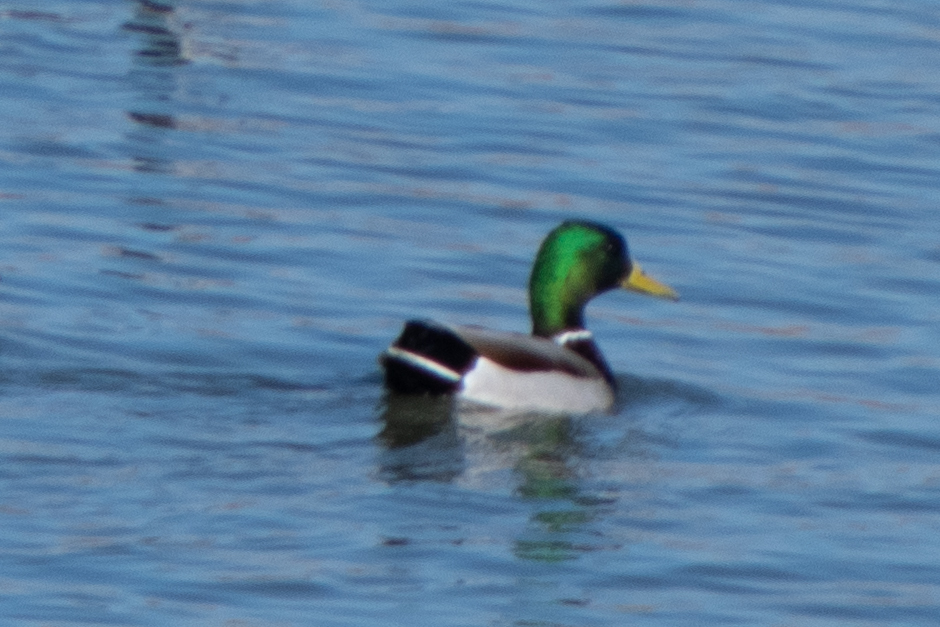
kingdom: Animalia
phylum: Chordata
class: Aves
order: Anseriformes
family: Anatidae
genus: Anas
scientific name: Anas platyrhynchos
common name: Mallard
